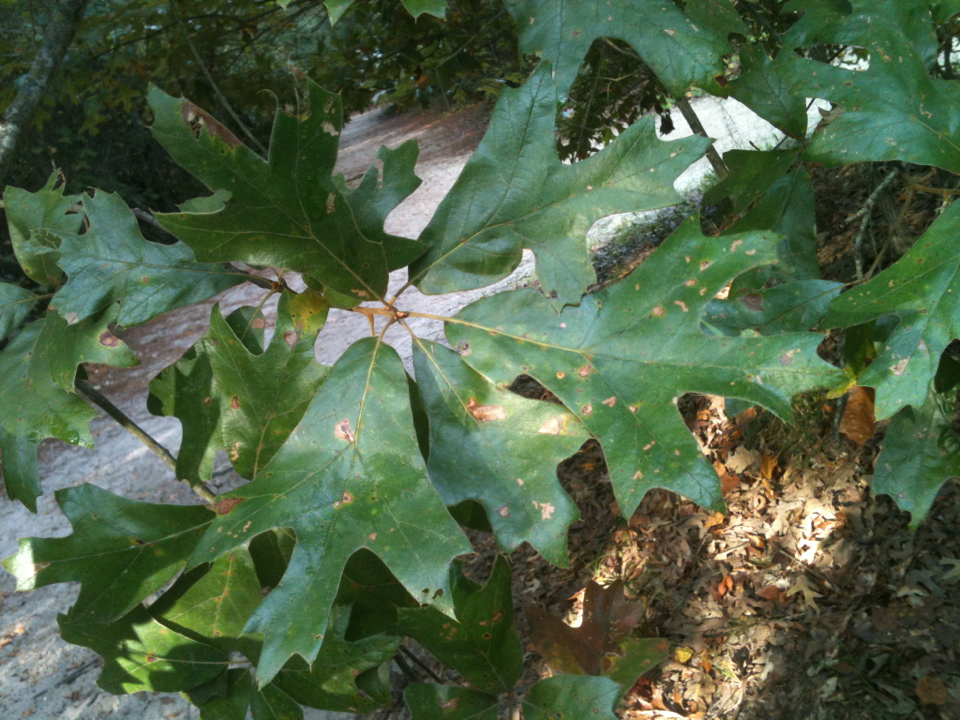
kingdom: Plantae
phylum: Tracheophyta
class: Magnoliopsida
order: Fagales
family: Fagaceae
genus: Quercus
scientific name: Quercus falcata
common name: Southern red oak
